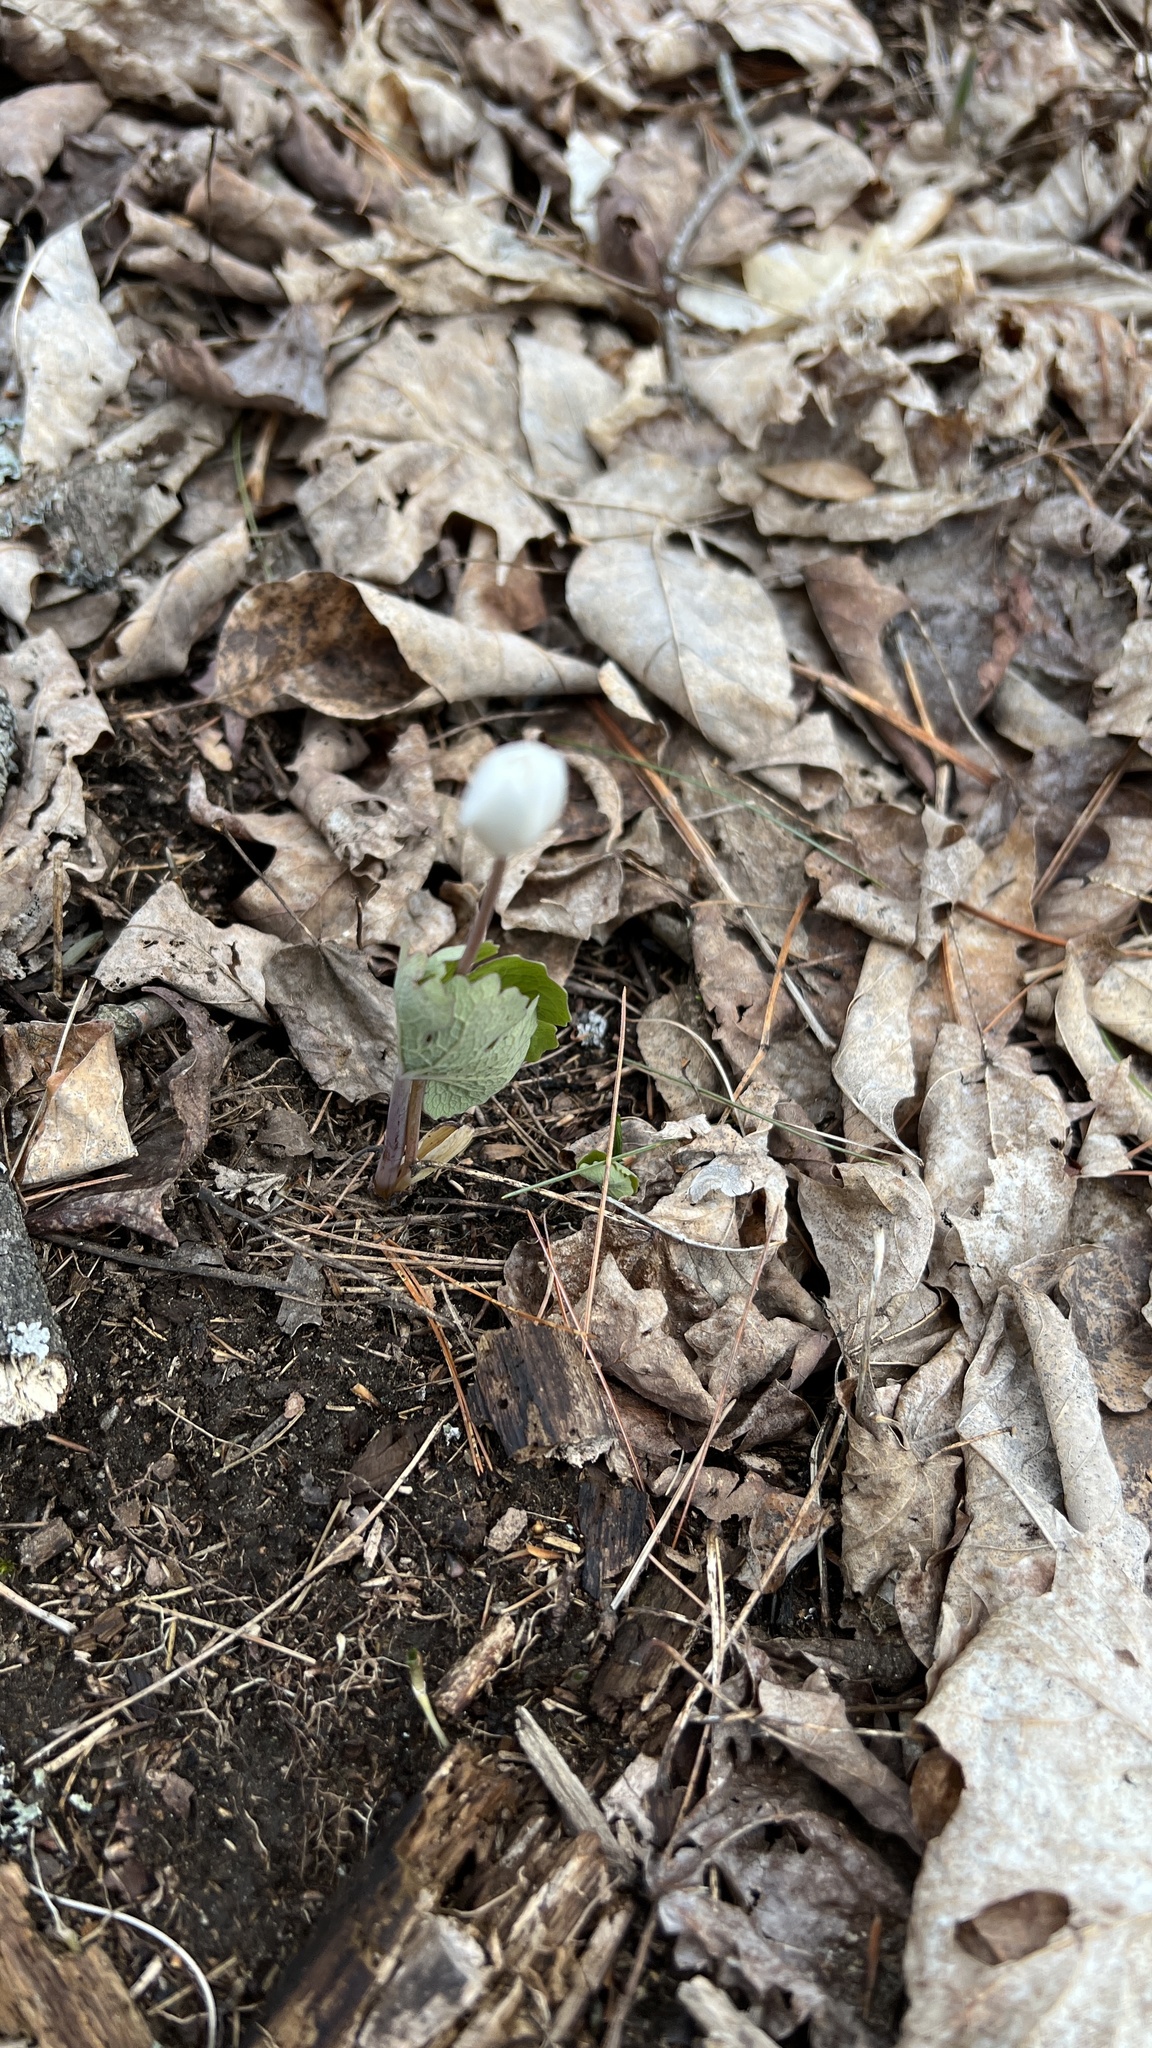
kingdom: Plantae
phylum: Tracheophyta
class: Magnoliopsida
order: Ranunculales
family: Papaveraceae
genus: Sanguinaria
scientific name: Sanguinaria canadensis
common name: Bloodroot
